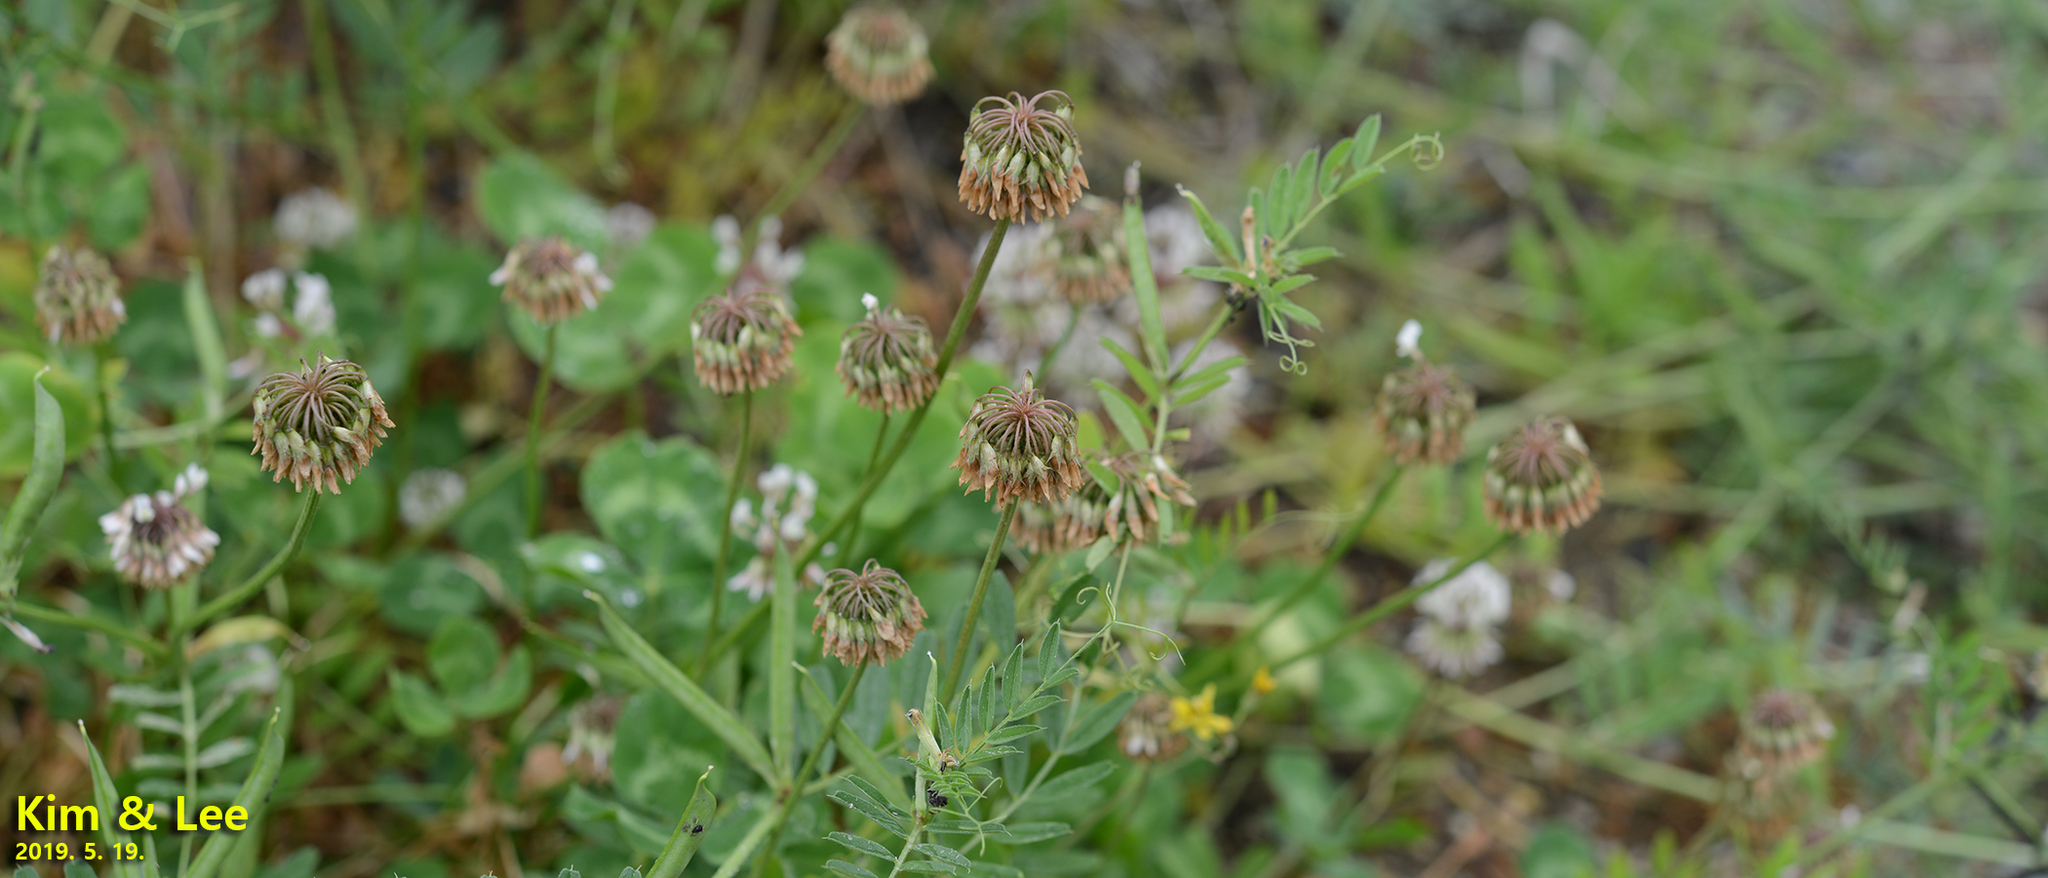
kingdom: Plantae
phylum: Tracheophyta
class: Magnoliopsida
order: Fabales
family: Fabaceae
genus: Trifolium
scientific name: Trifolium repens
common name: White clover
